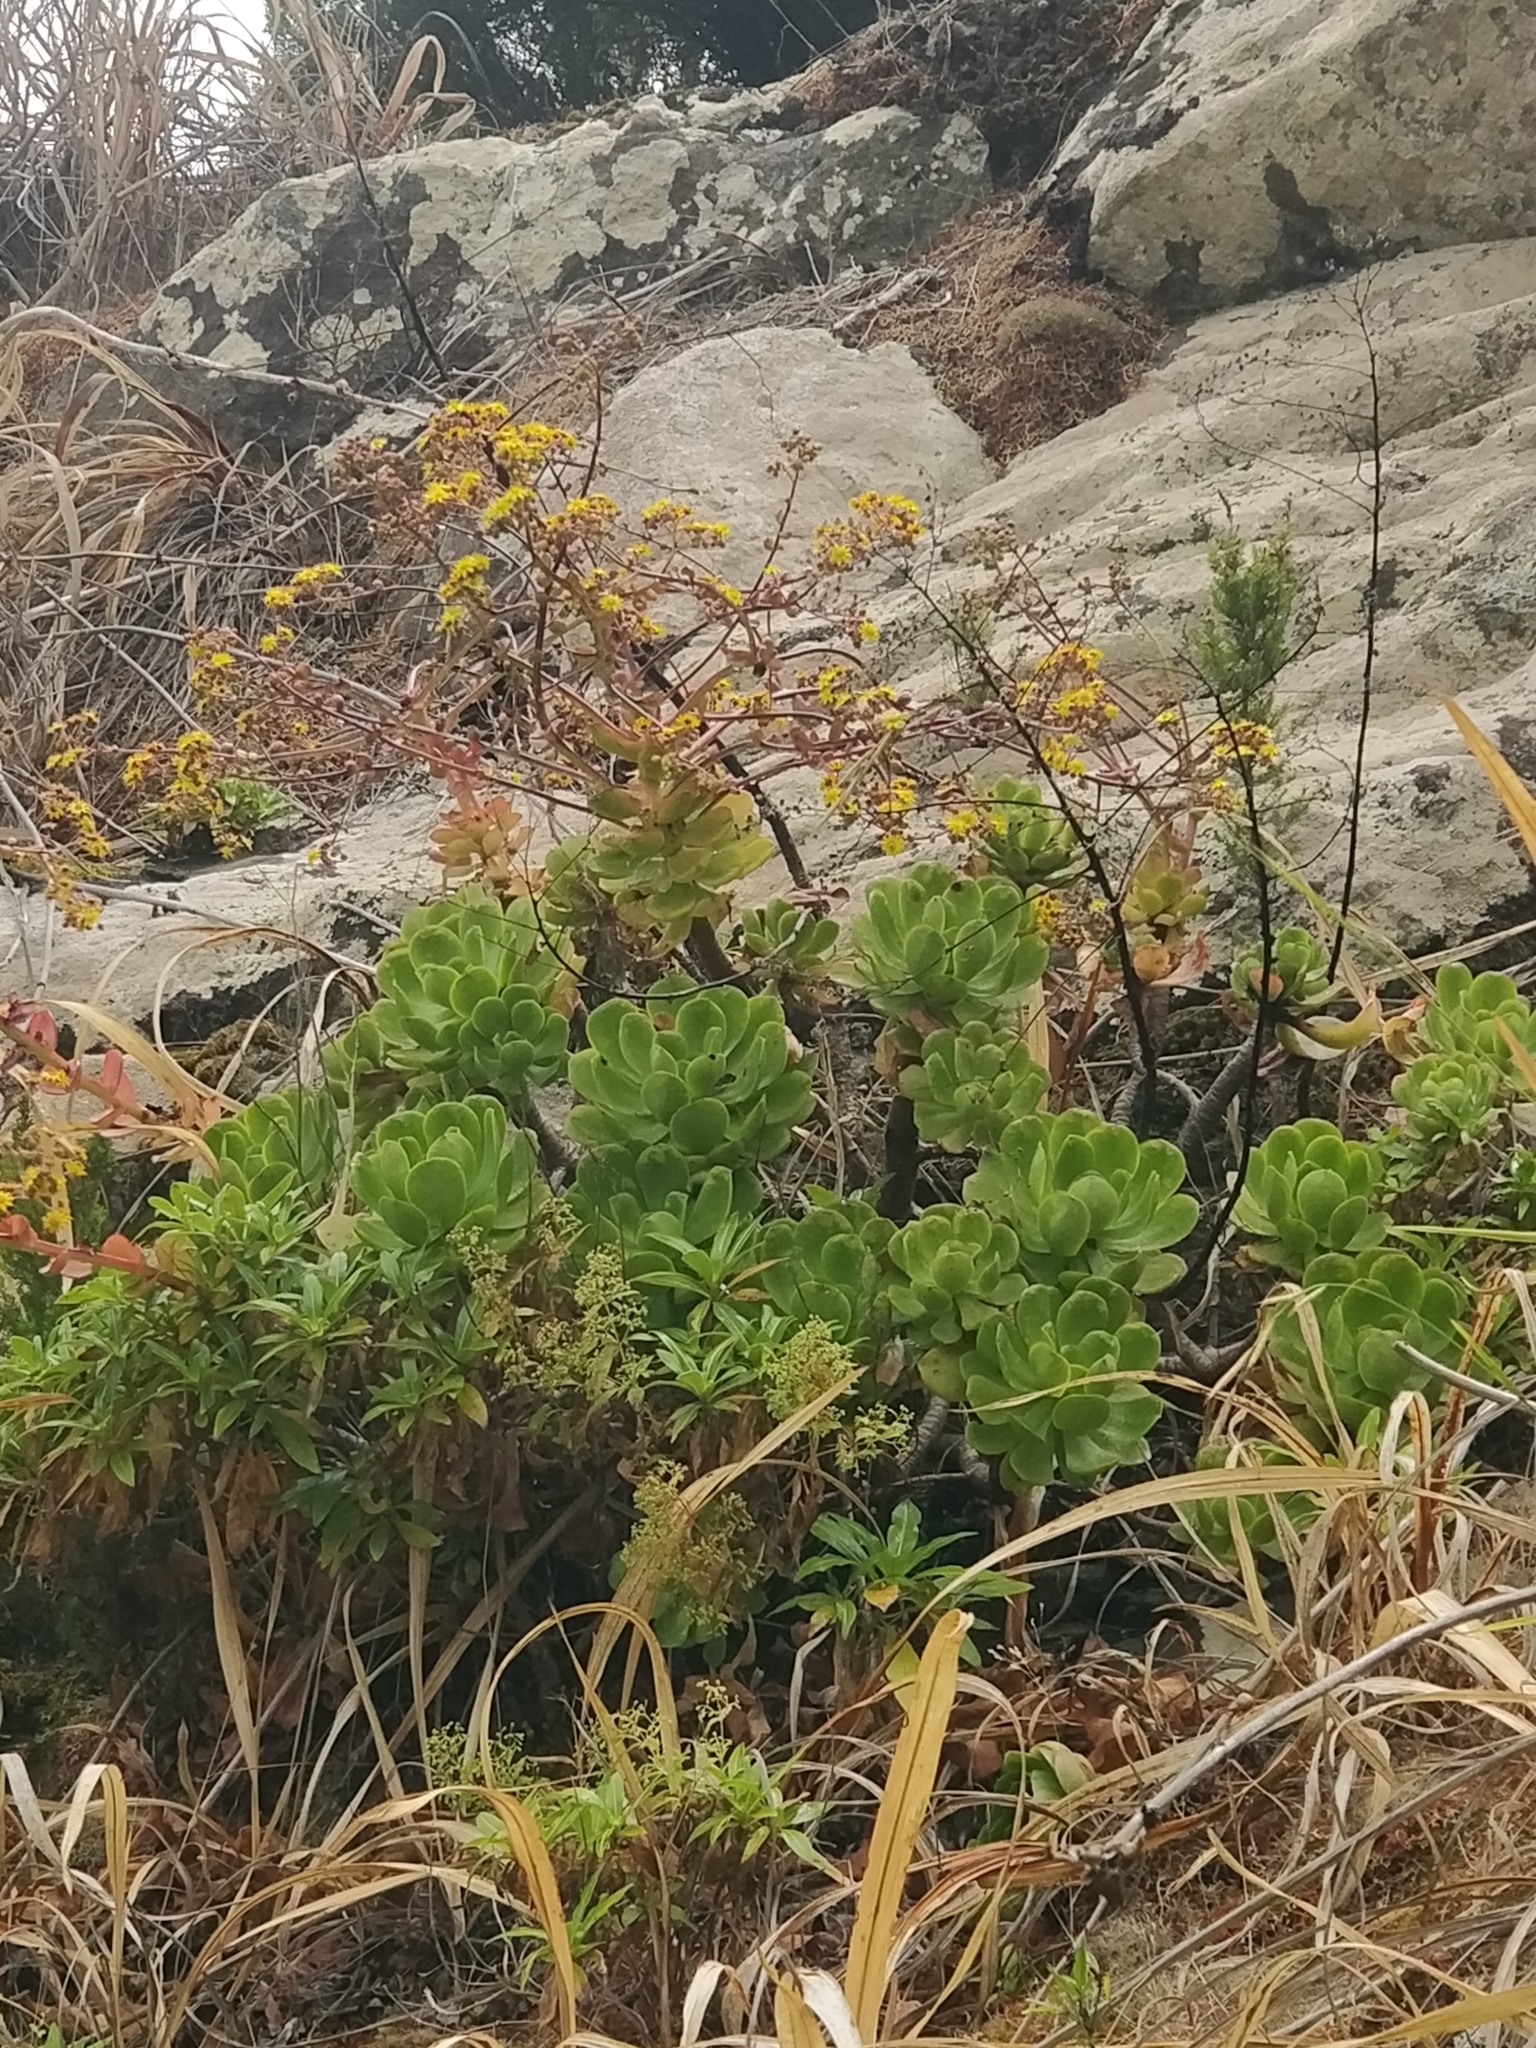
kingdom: Plantae
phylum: Tracheophyta
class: Magnoliopsida
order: Saxifragales
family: Crassulaceae
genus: Aeonium
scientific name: Aeonium glutinosum
